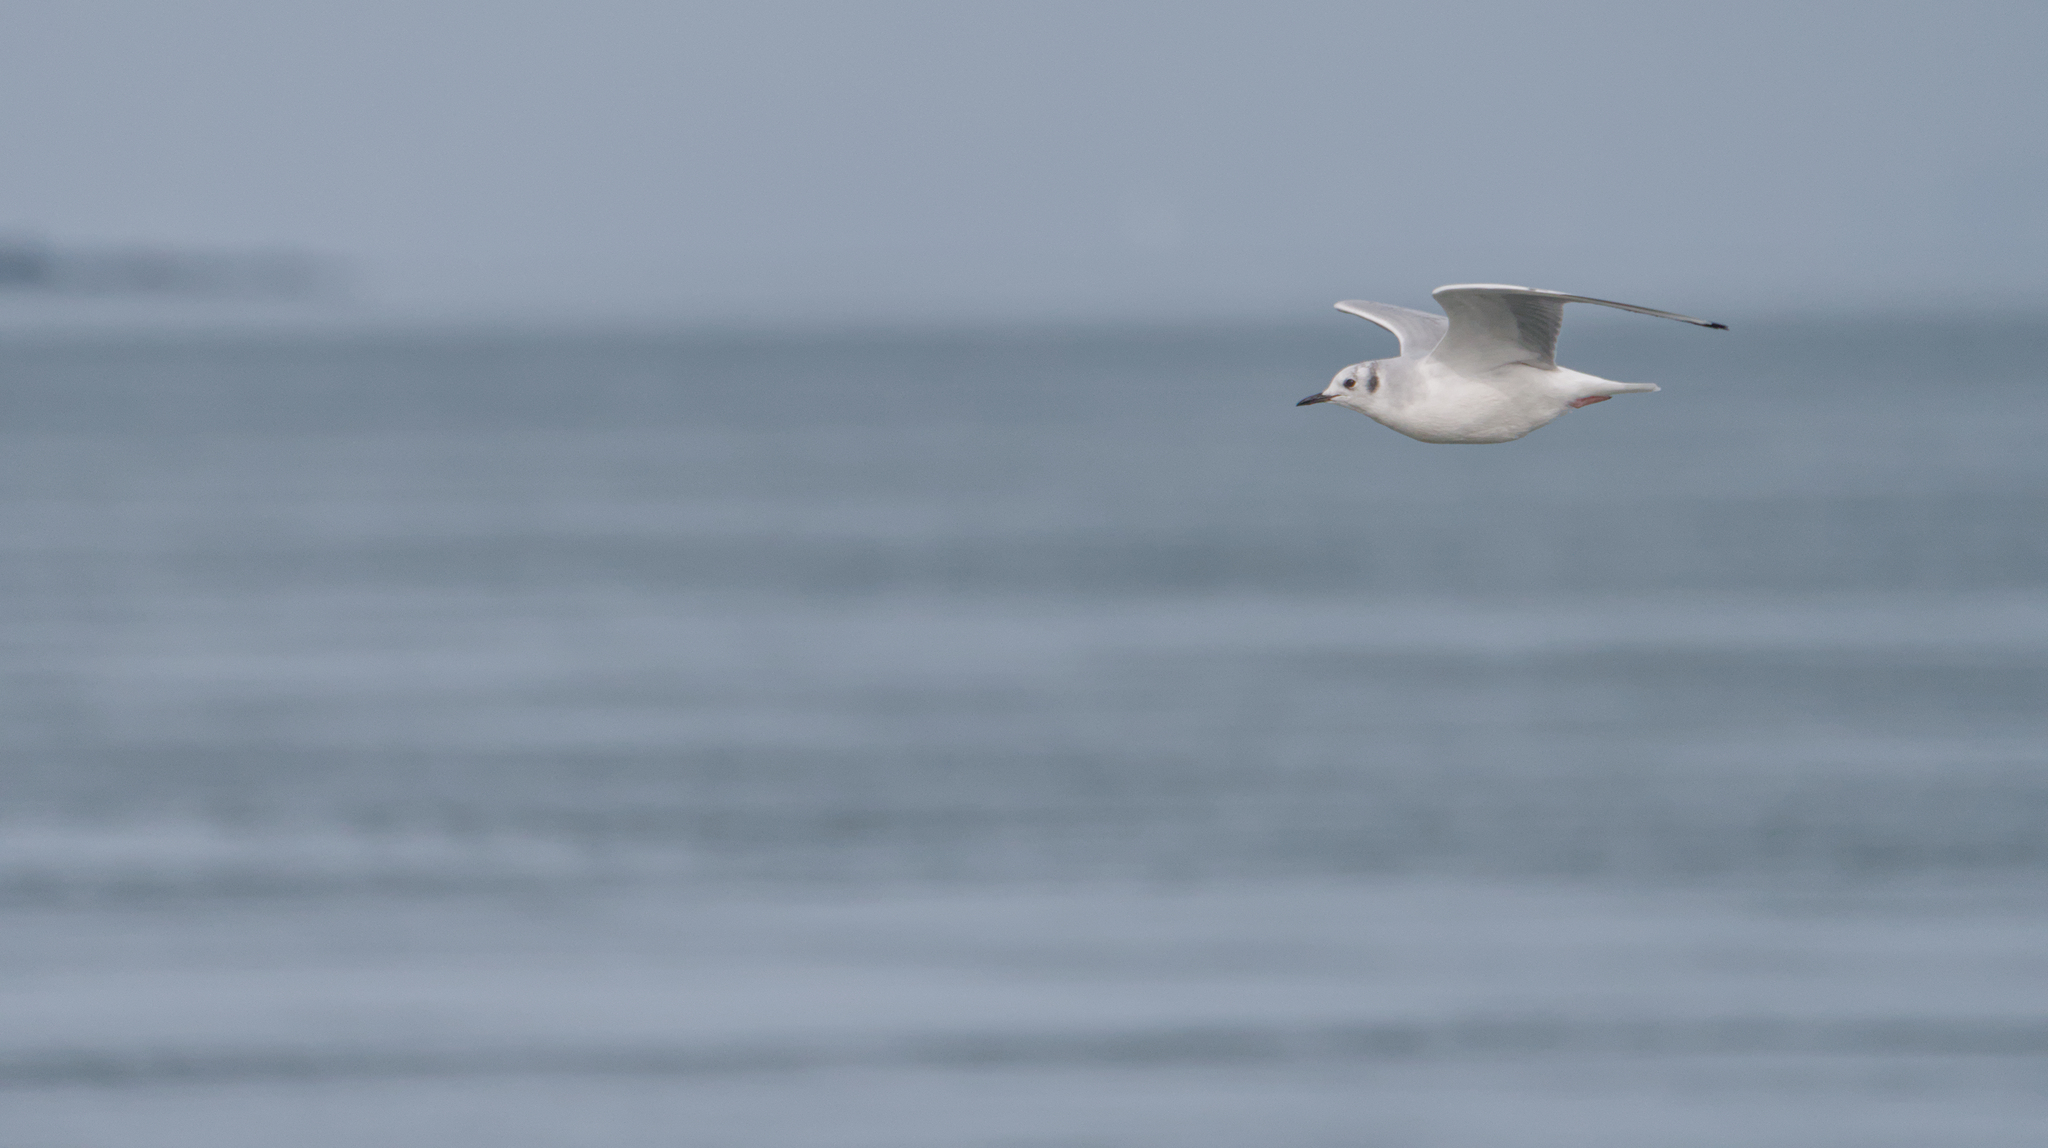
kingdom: Animalia
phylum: Chordata
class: Aves
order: Charadriiformes
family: Laridae
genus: Chroicocephalus
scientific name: Chroicocephalus philadelphia
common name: Bonaparte's gull
